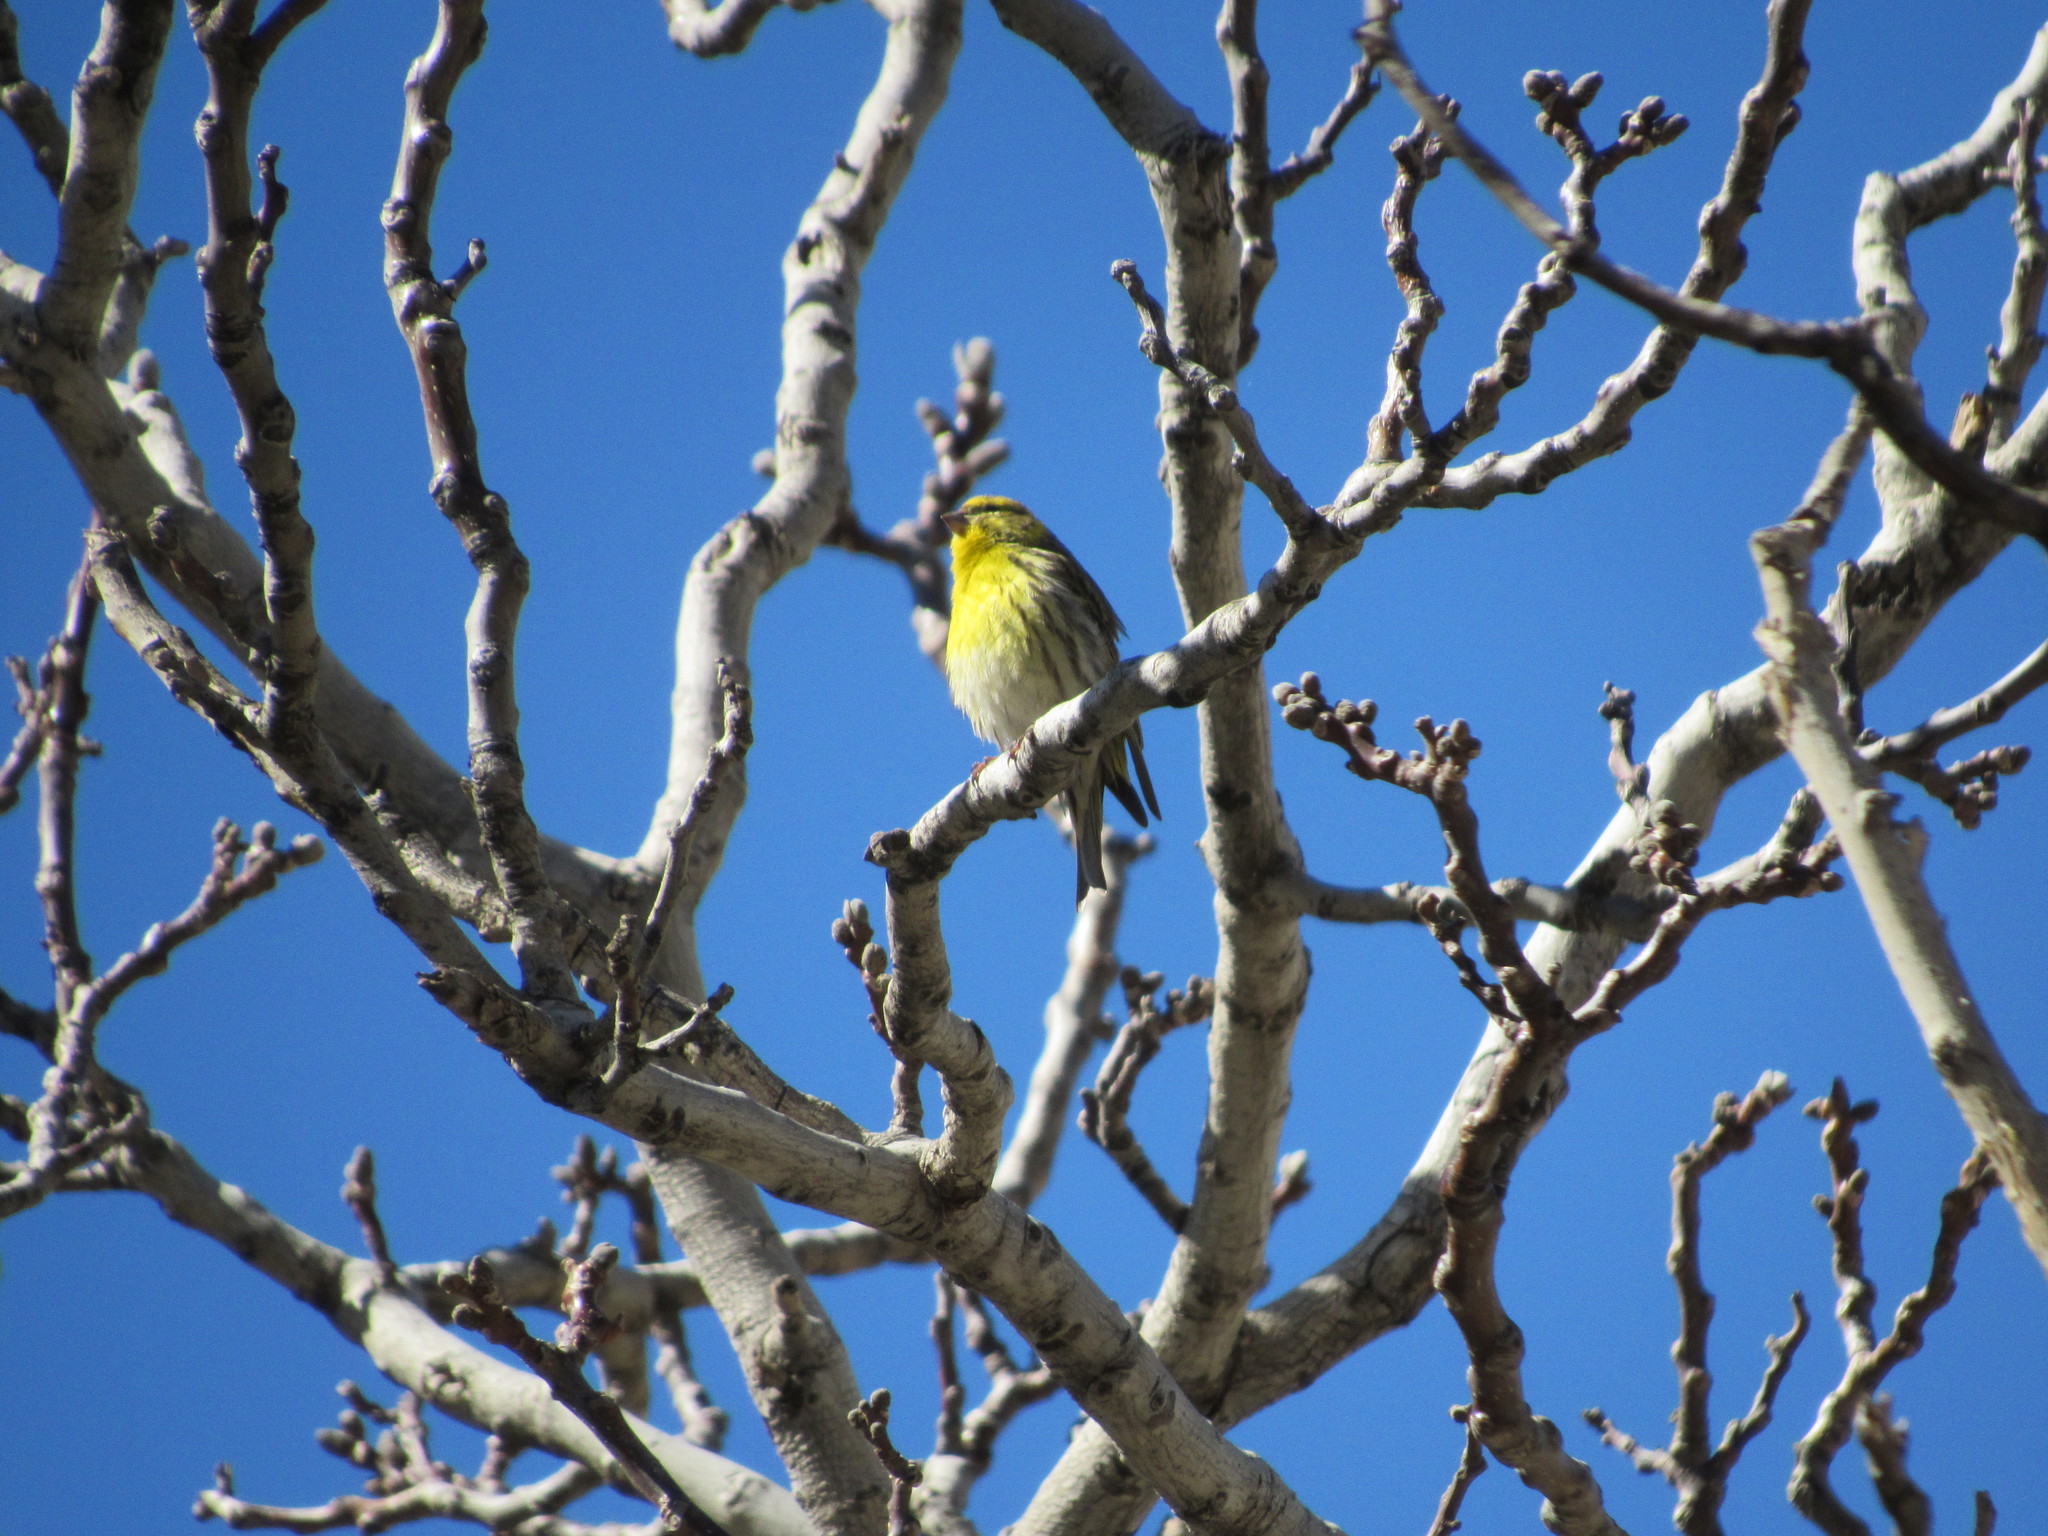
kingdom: Animalia
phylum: Chordata
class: Aves
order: Passeriformes
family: Fringillidae
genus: Serinus
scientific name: Serinus serinus
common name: European serin
